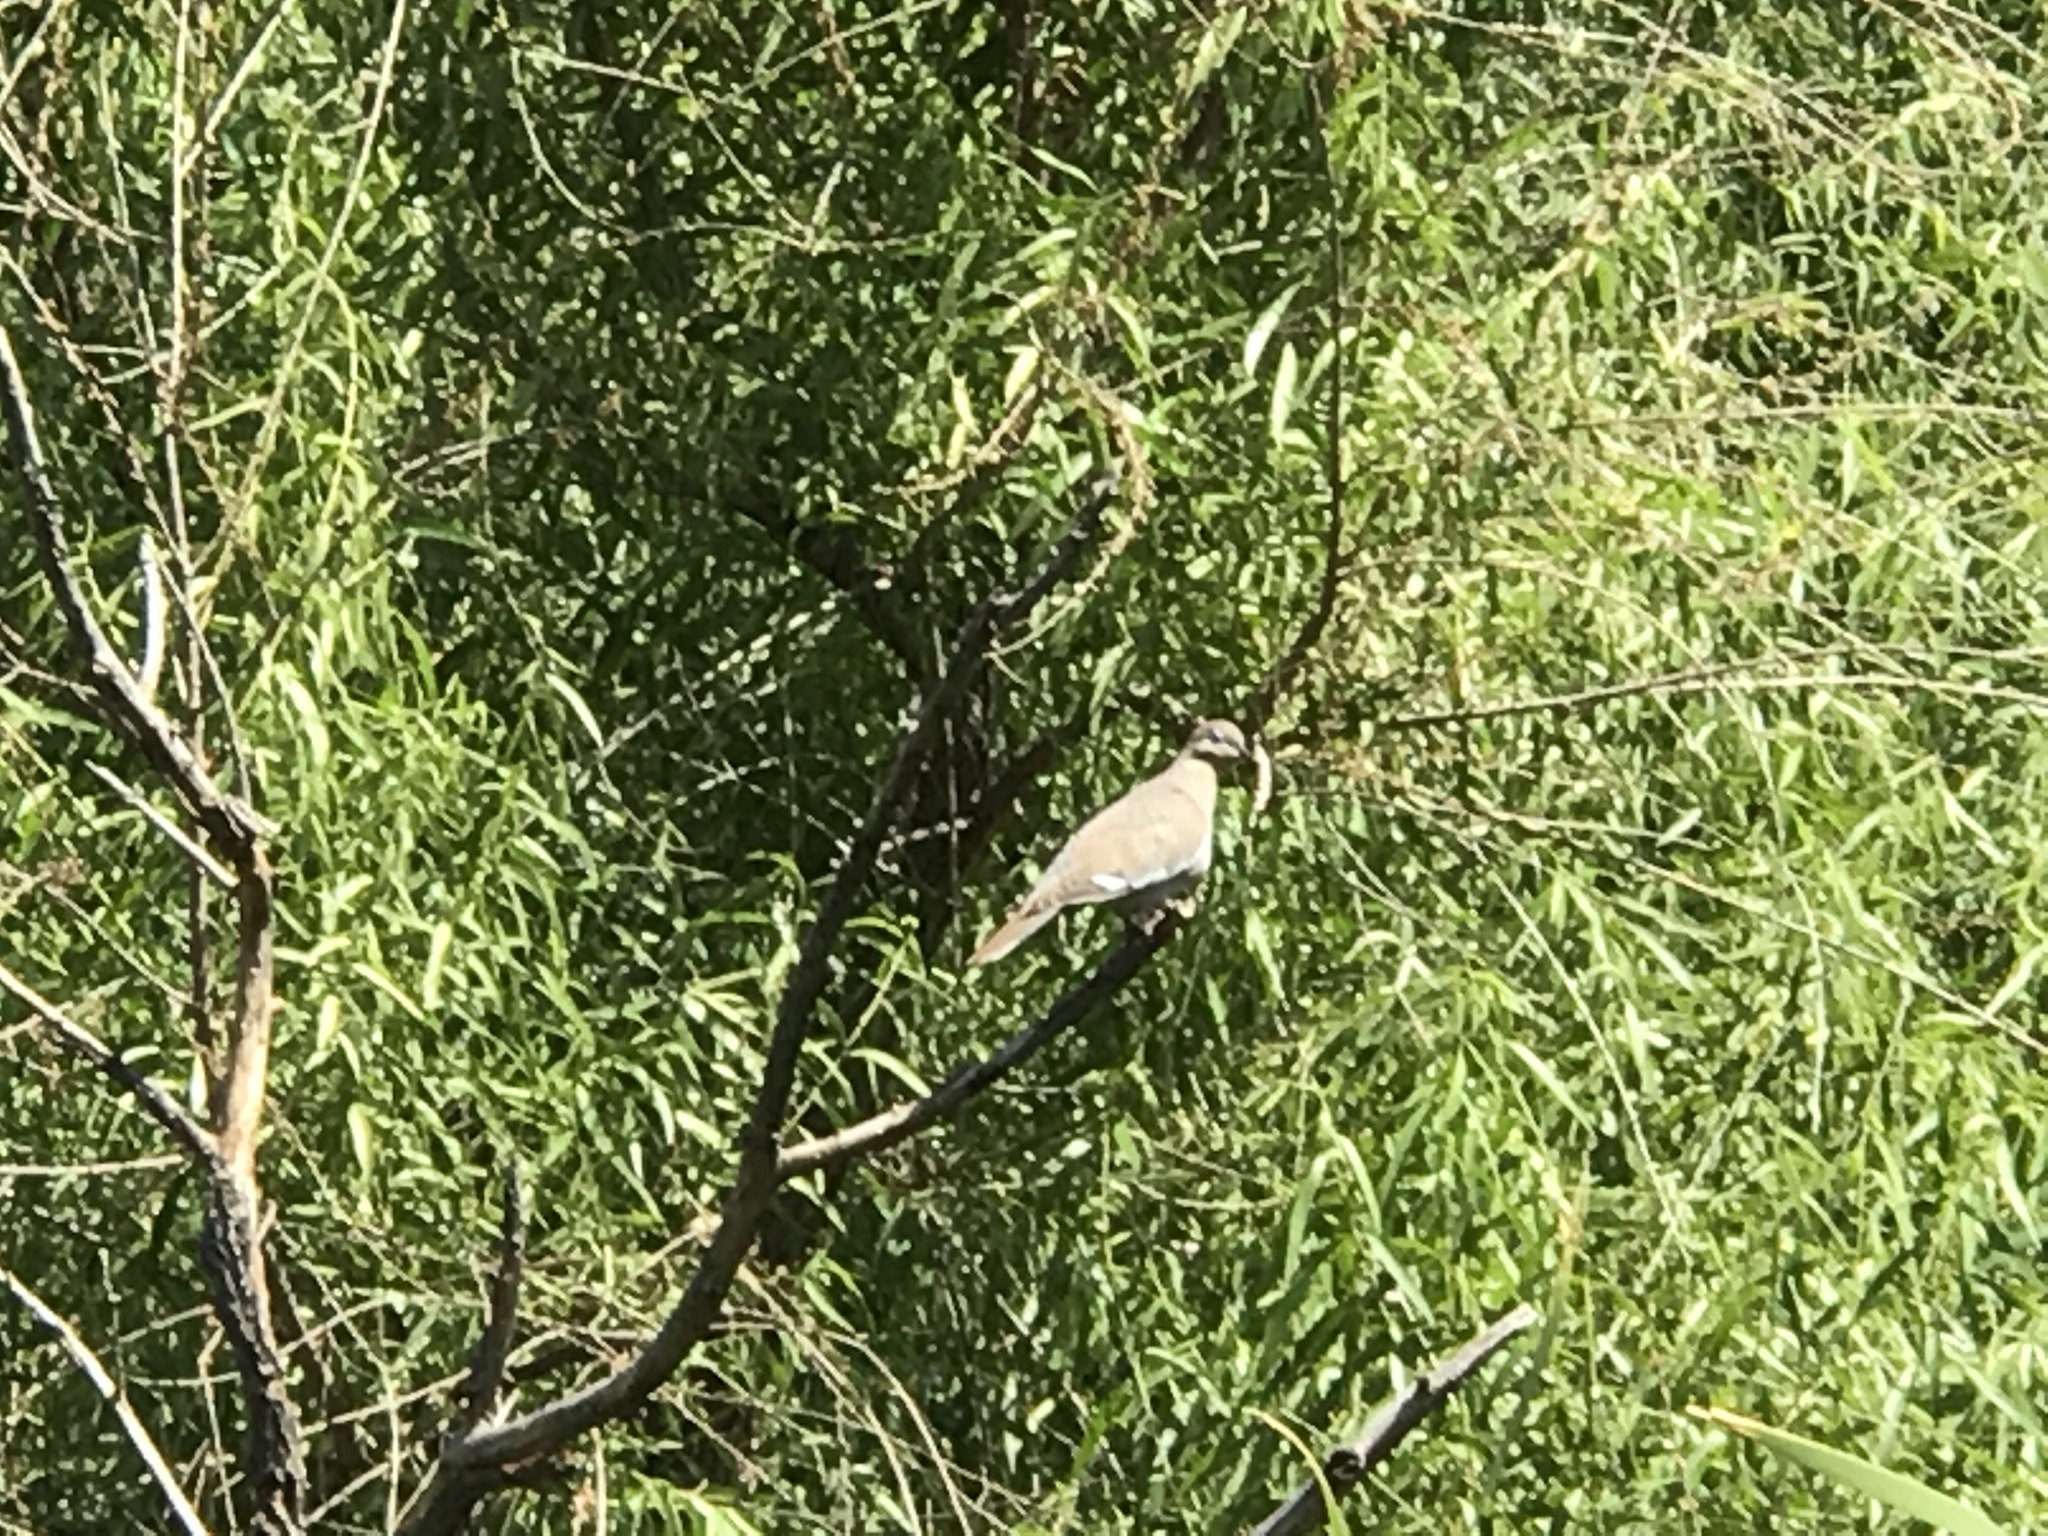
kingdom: Animalia
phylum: Chordata
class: Aves
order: Columbiformes
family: Columbidae
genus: Zenaida
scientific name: Zenaida asiatica
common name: White-winged dove
